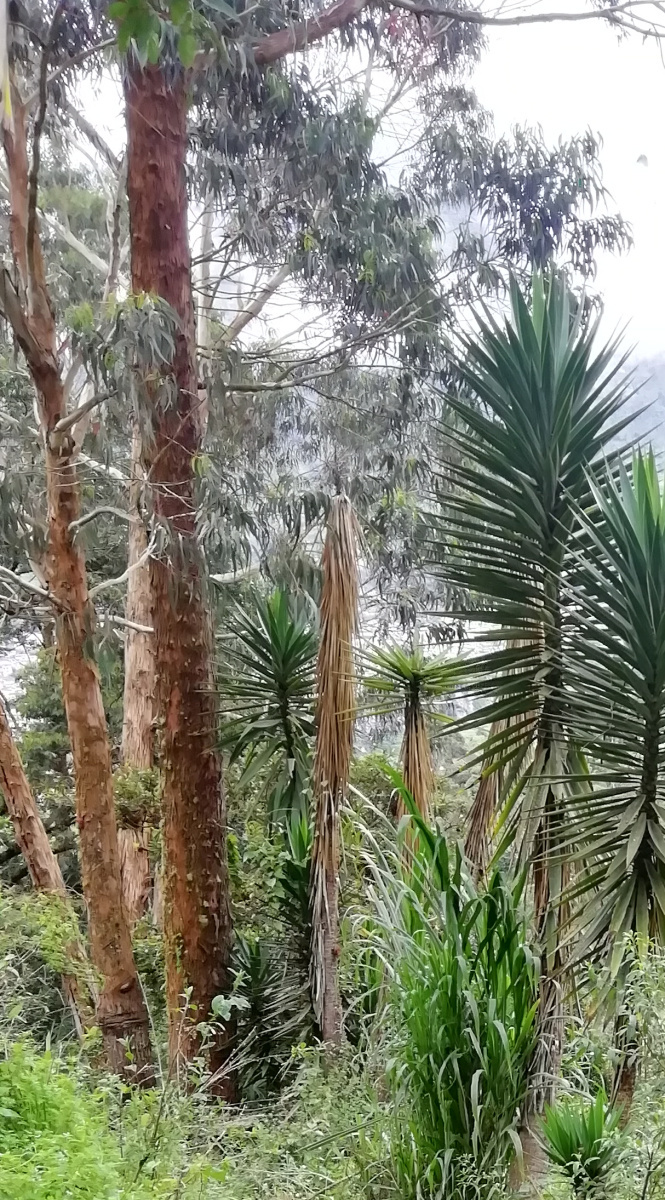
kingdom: Plantae
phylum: Tracheophyta
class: Liliopsida
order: Asparagales
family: Asparagaceae
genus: Yucca
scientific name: Yucca gigantea
